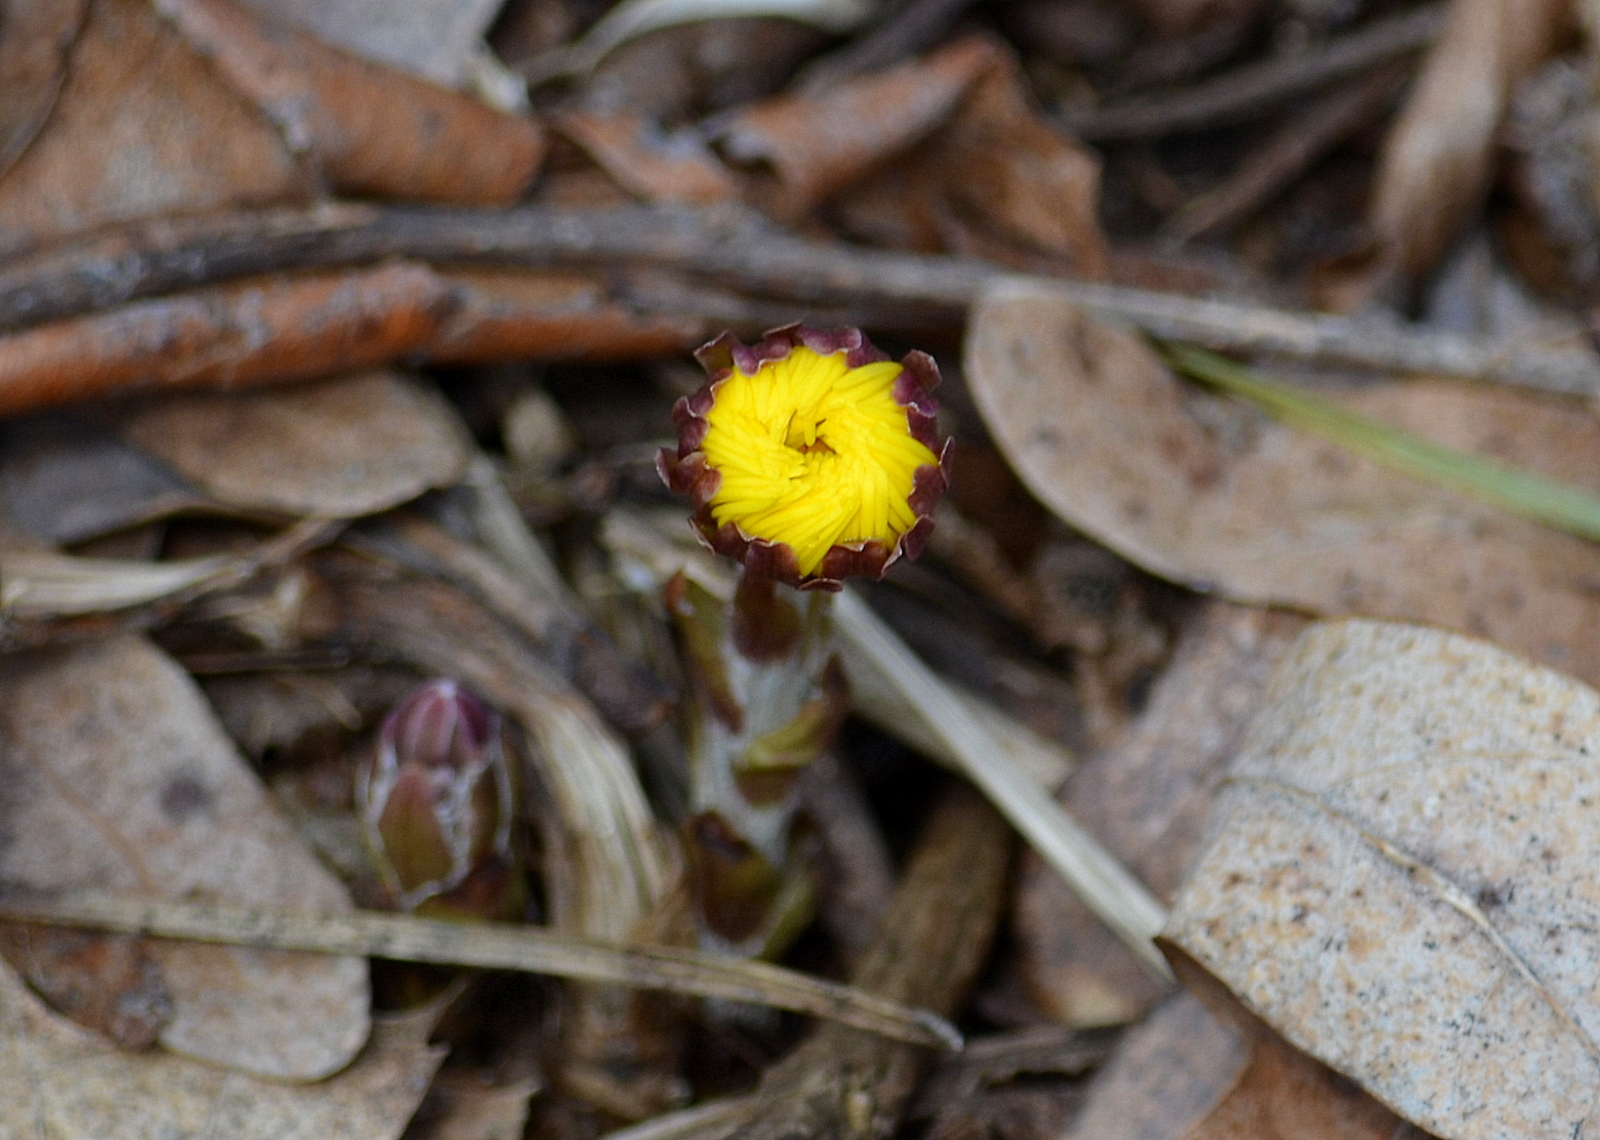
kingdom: Plantae
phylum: Tracheophyta
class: Magnoliopsida
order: Asterales
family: Asteraceae
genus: Tussilago
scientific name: Tussilago farfara
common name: Coltsfoot
